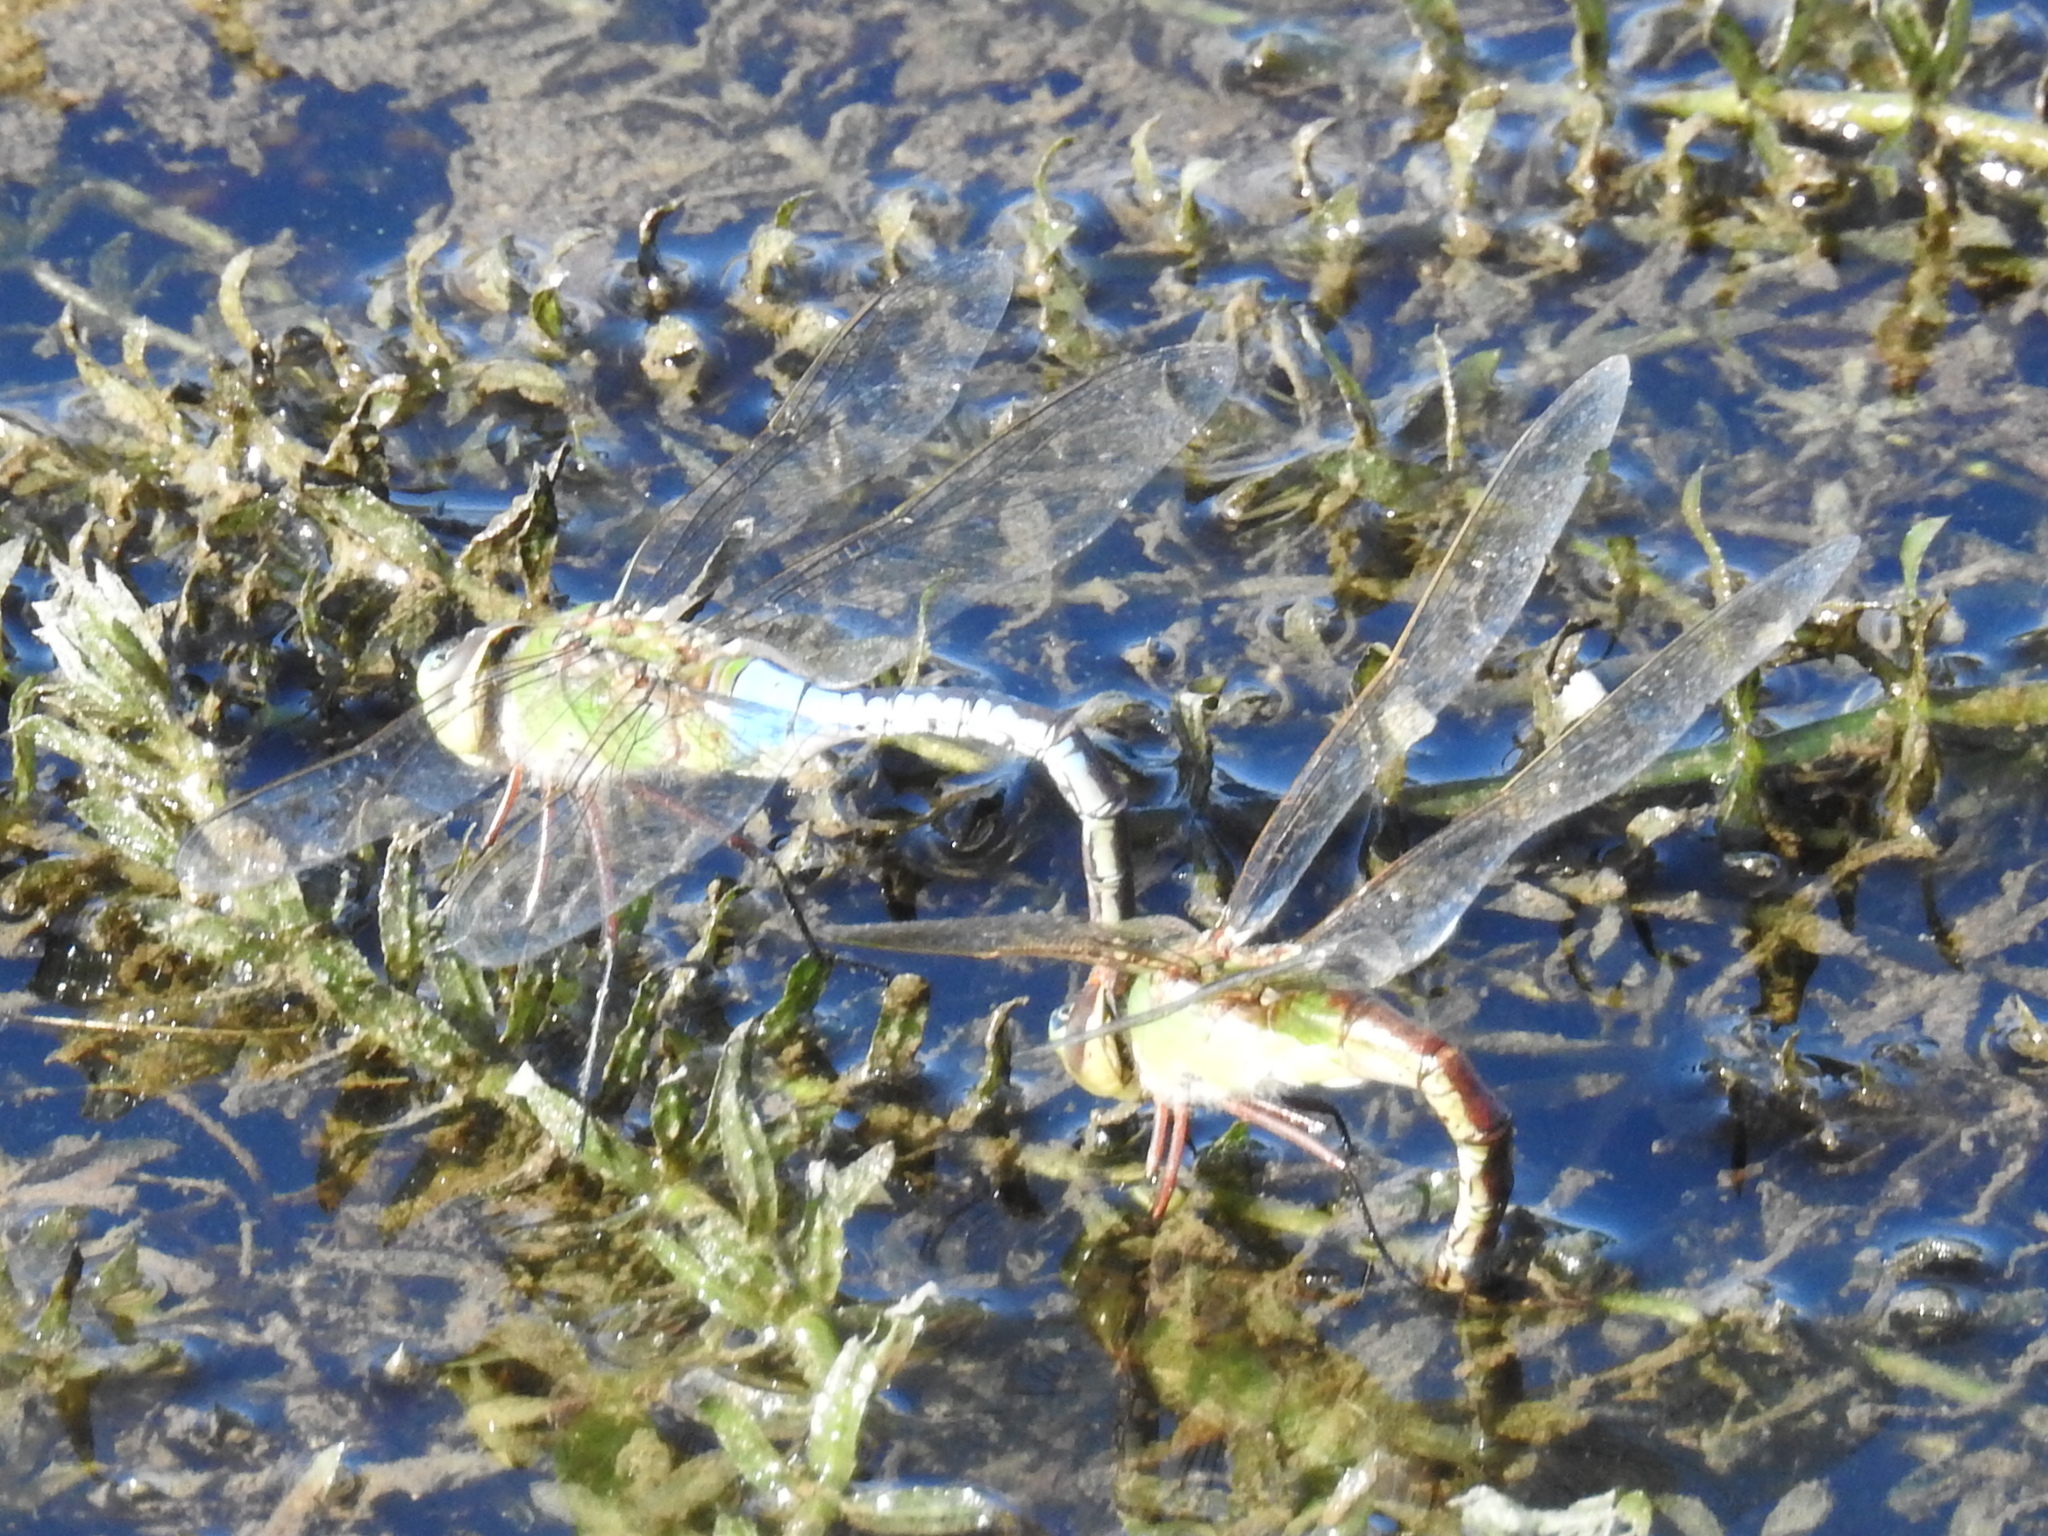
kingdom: Animalia
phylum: Arthropoda
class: Insecta
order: Odonata
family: Aeshnidae
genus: Anax
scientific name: Anax junius
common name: Common green darner
